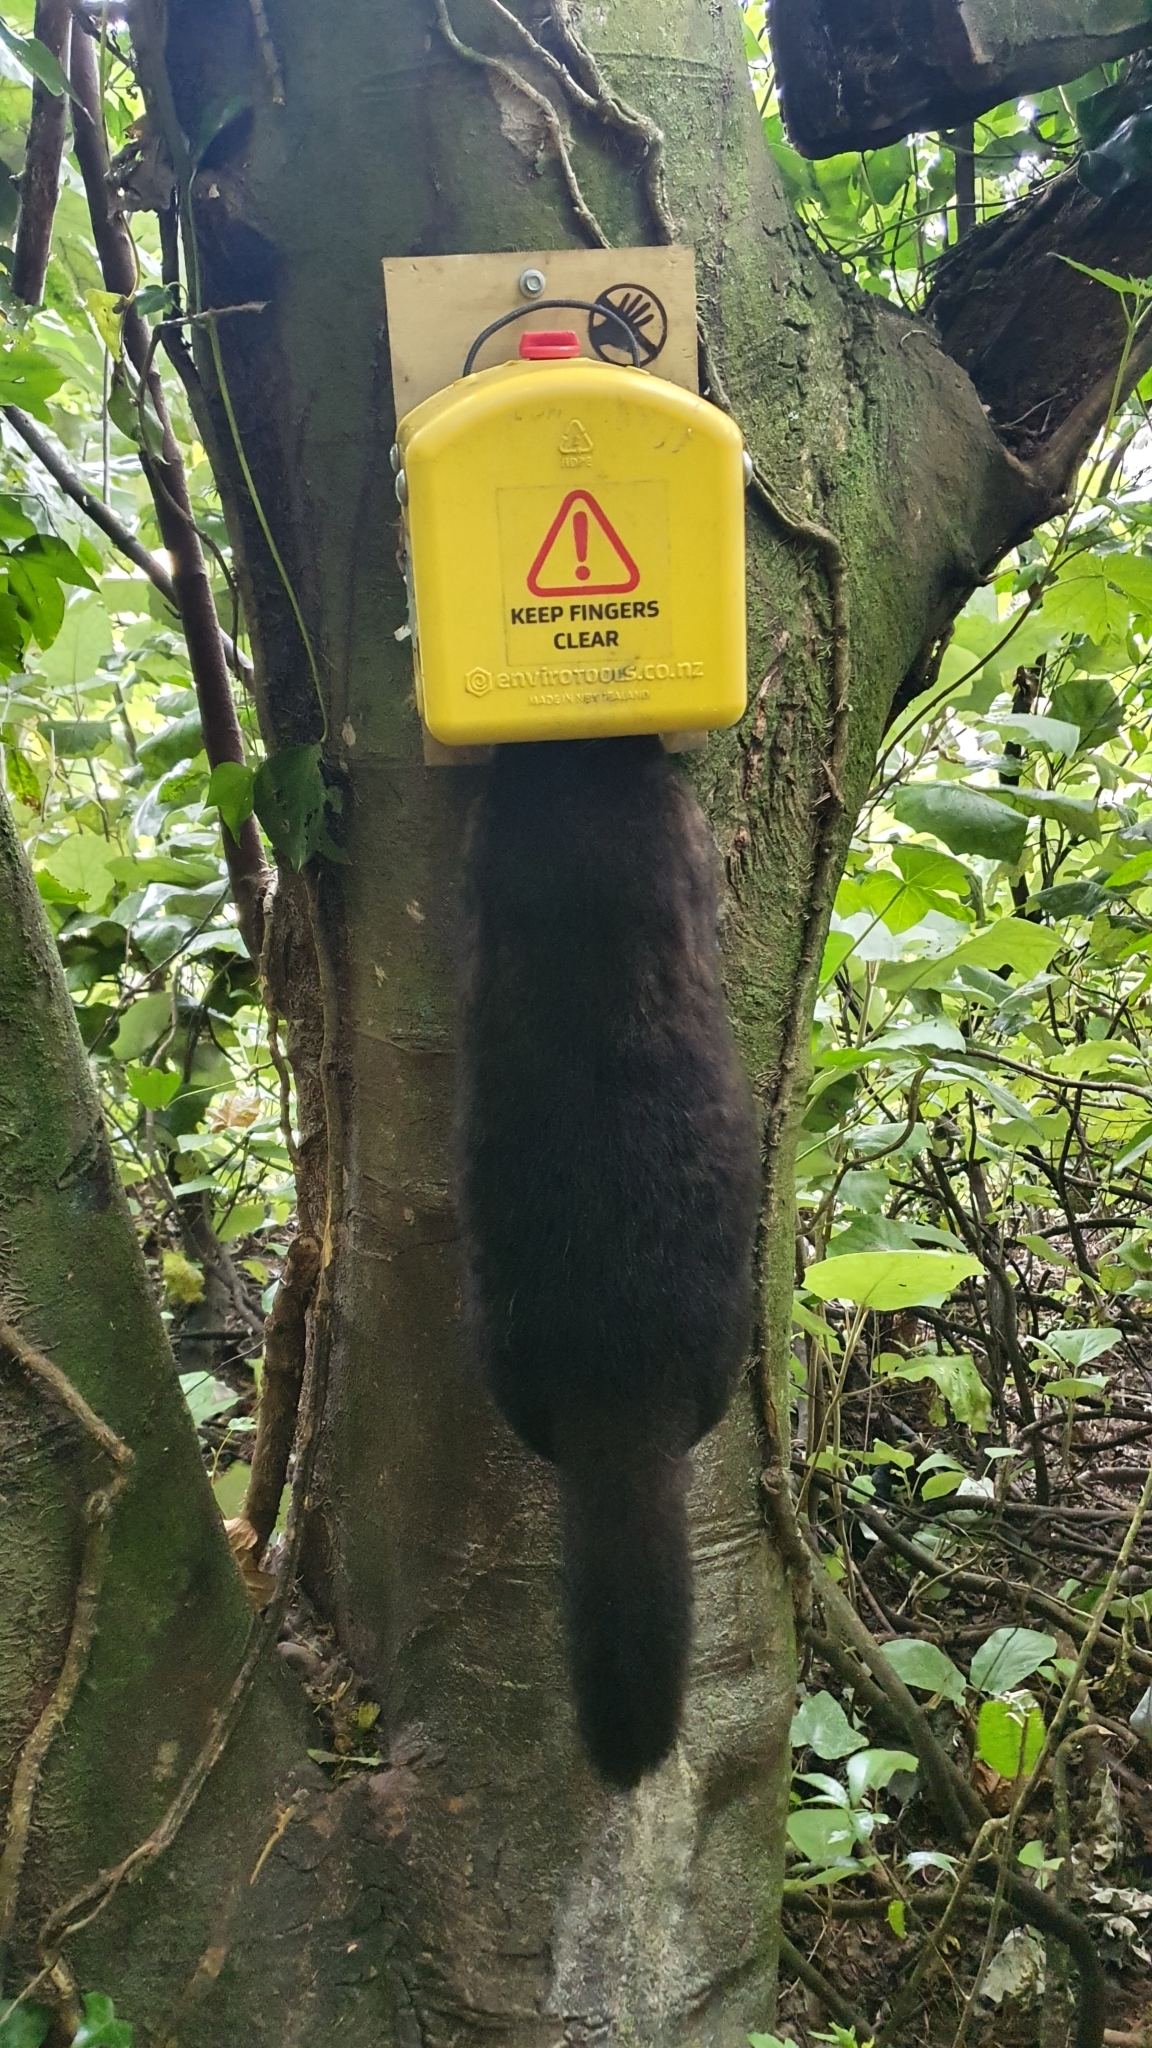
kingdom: Animalia
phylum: Chordata
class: Mammalia
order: Diprotodontia
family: Phalangeridae
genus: Trichosurus
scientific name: Trichosurus vulpecula
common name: Common brushtail
